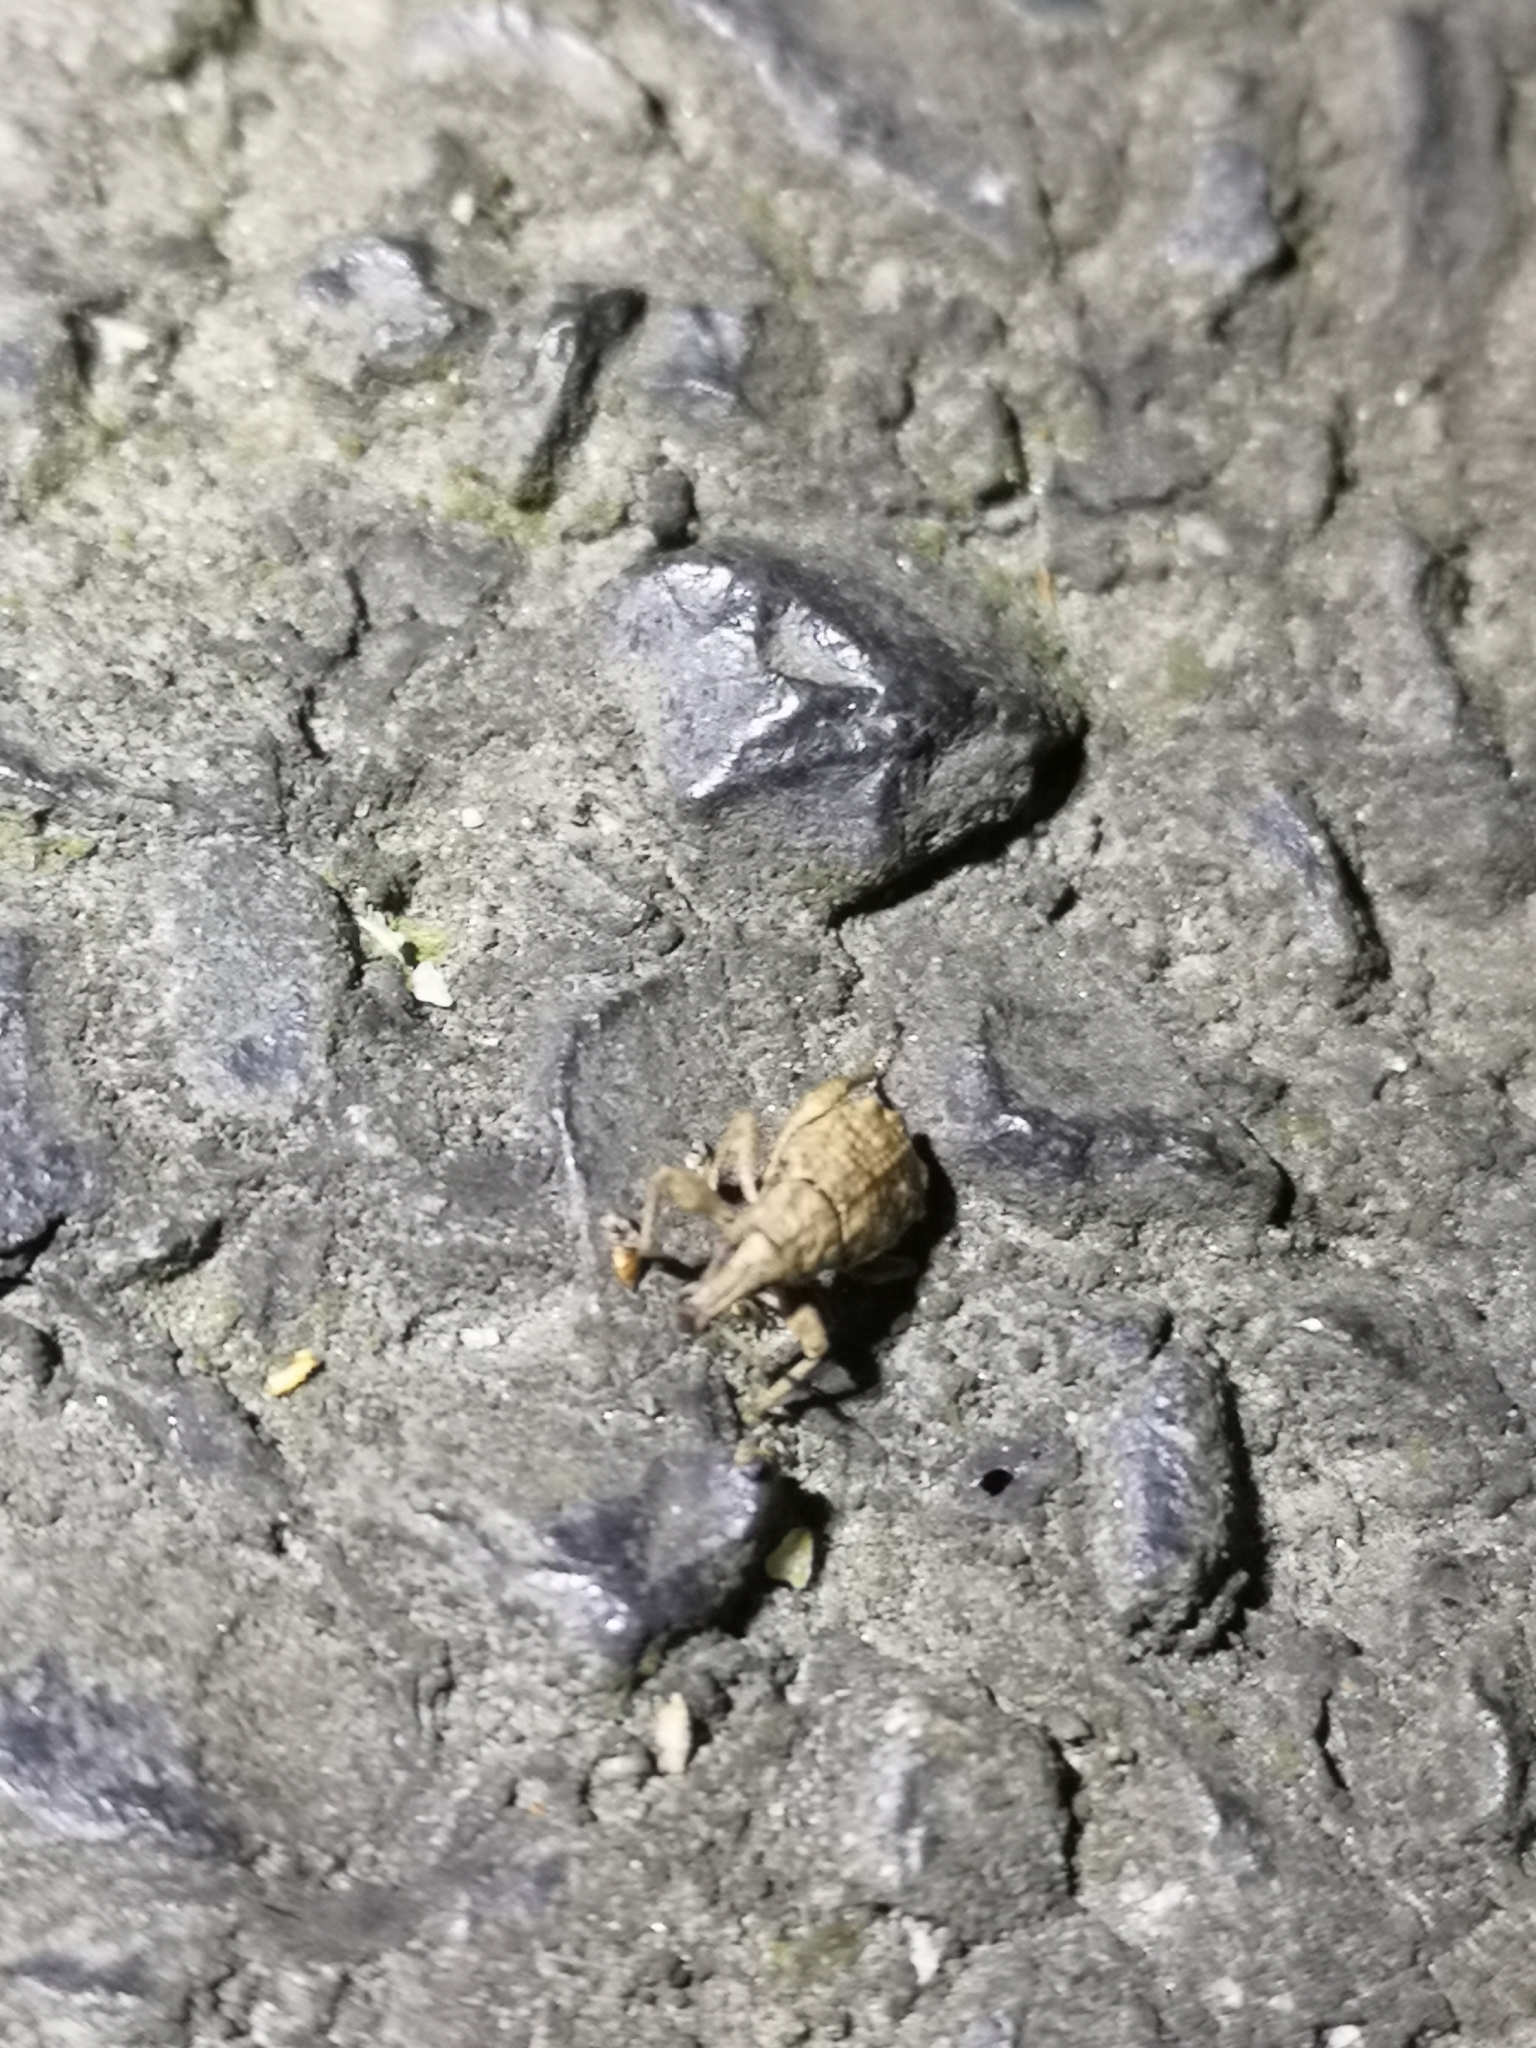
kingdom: Animalia
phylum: Arthropoda
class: Insecta
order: Coleoptera
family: Curculionidae
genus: Catoptes
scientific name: Catoptes censorius
